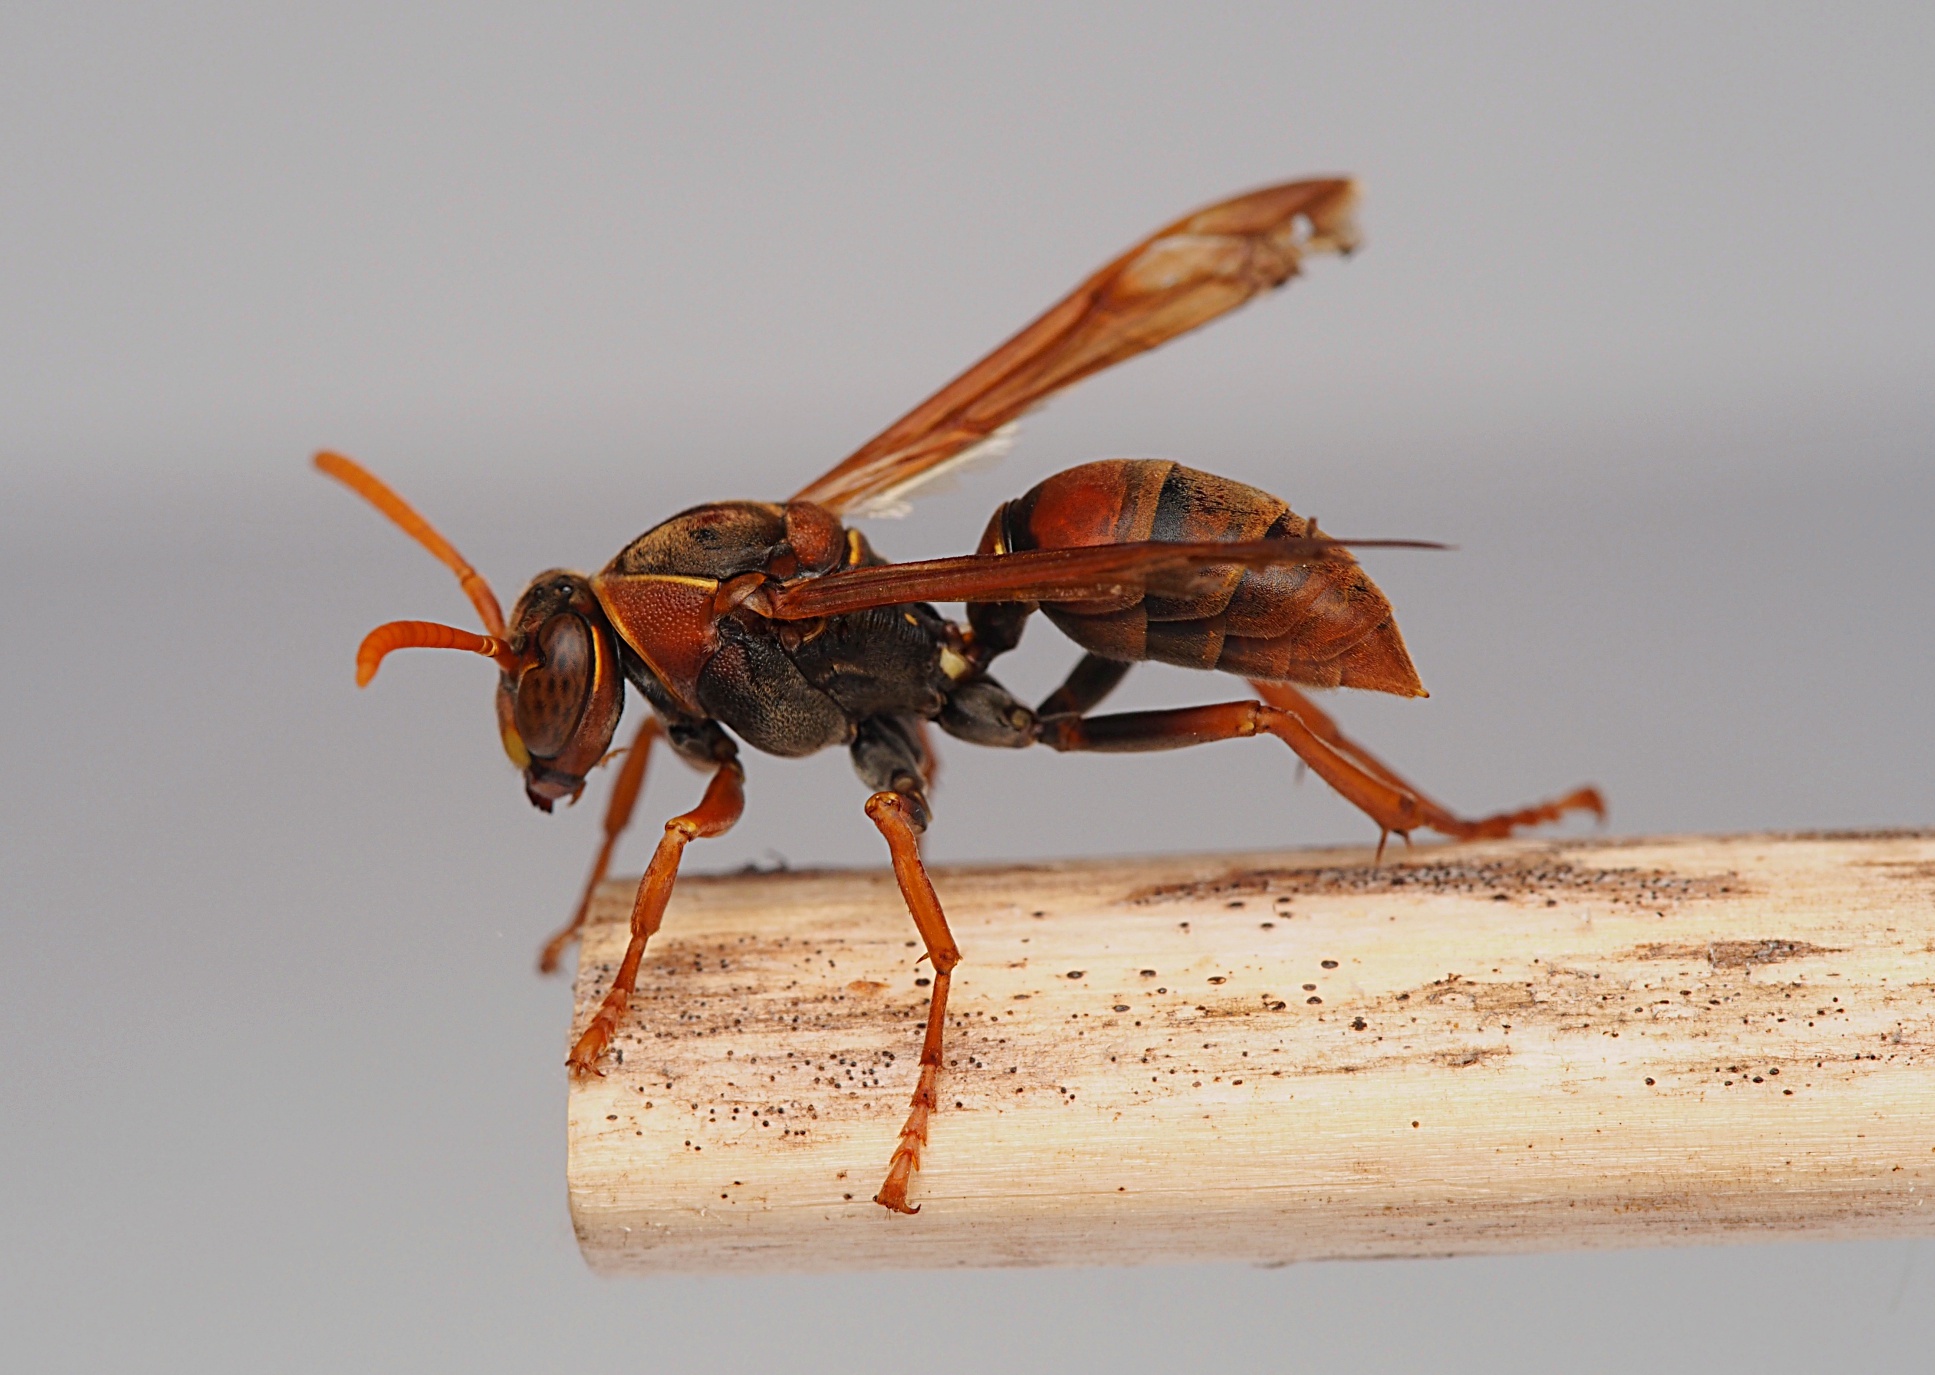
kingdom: Animalia
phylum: Arthropoda
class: Insecta
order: Hymenoptera
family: Eumenidae
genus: Polistes
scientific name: Polistes humilis
